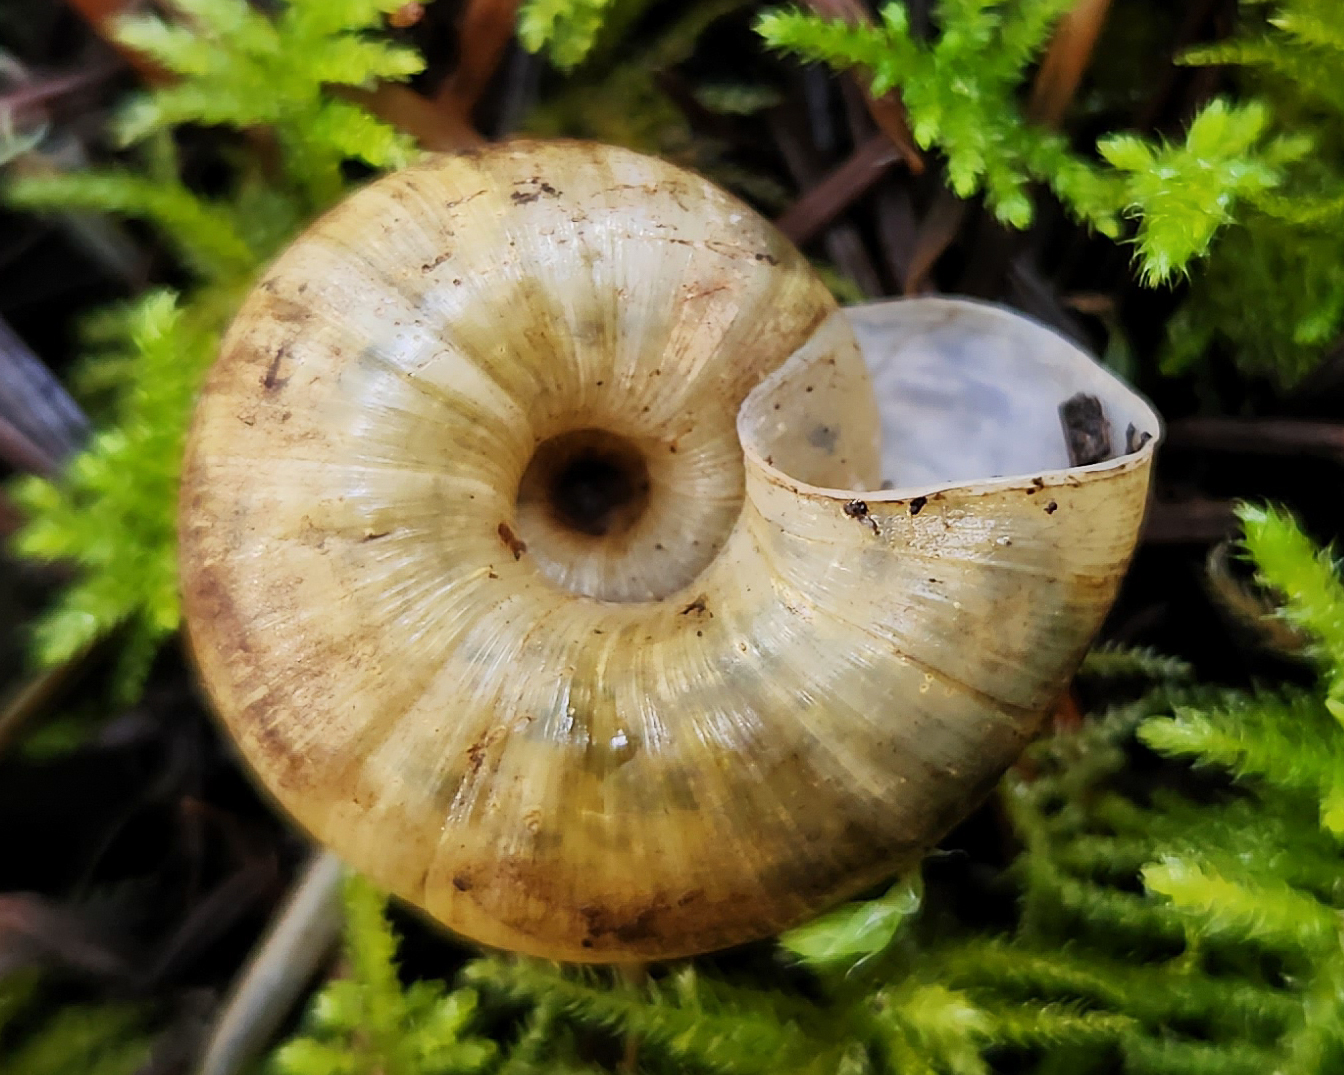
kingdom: Animalia
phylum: Mollusca
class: Gastropoda
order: Stylommatophora
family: Haplotrematidae
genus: Haplotrema
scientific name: Haplotrema vancouverense
